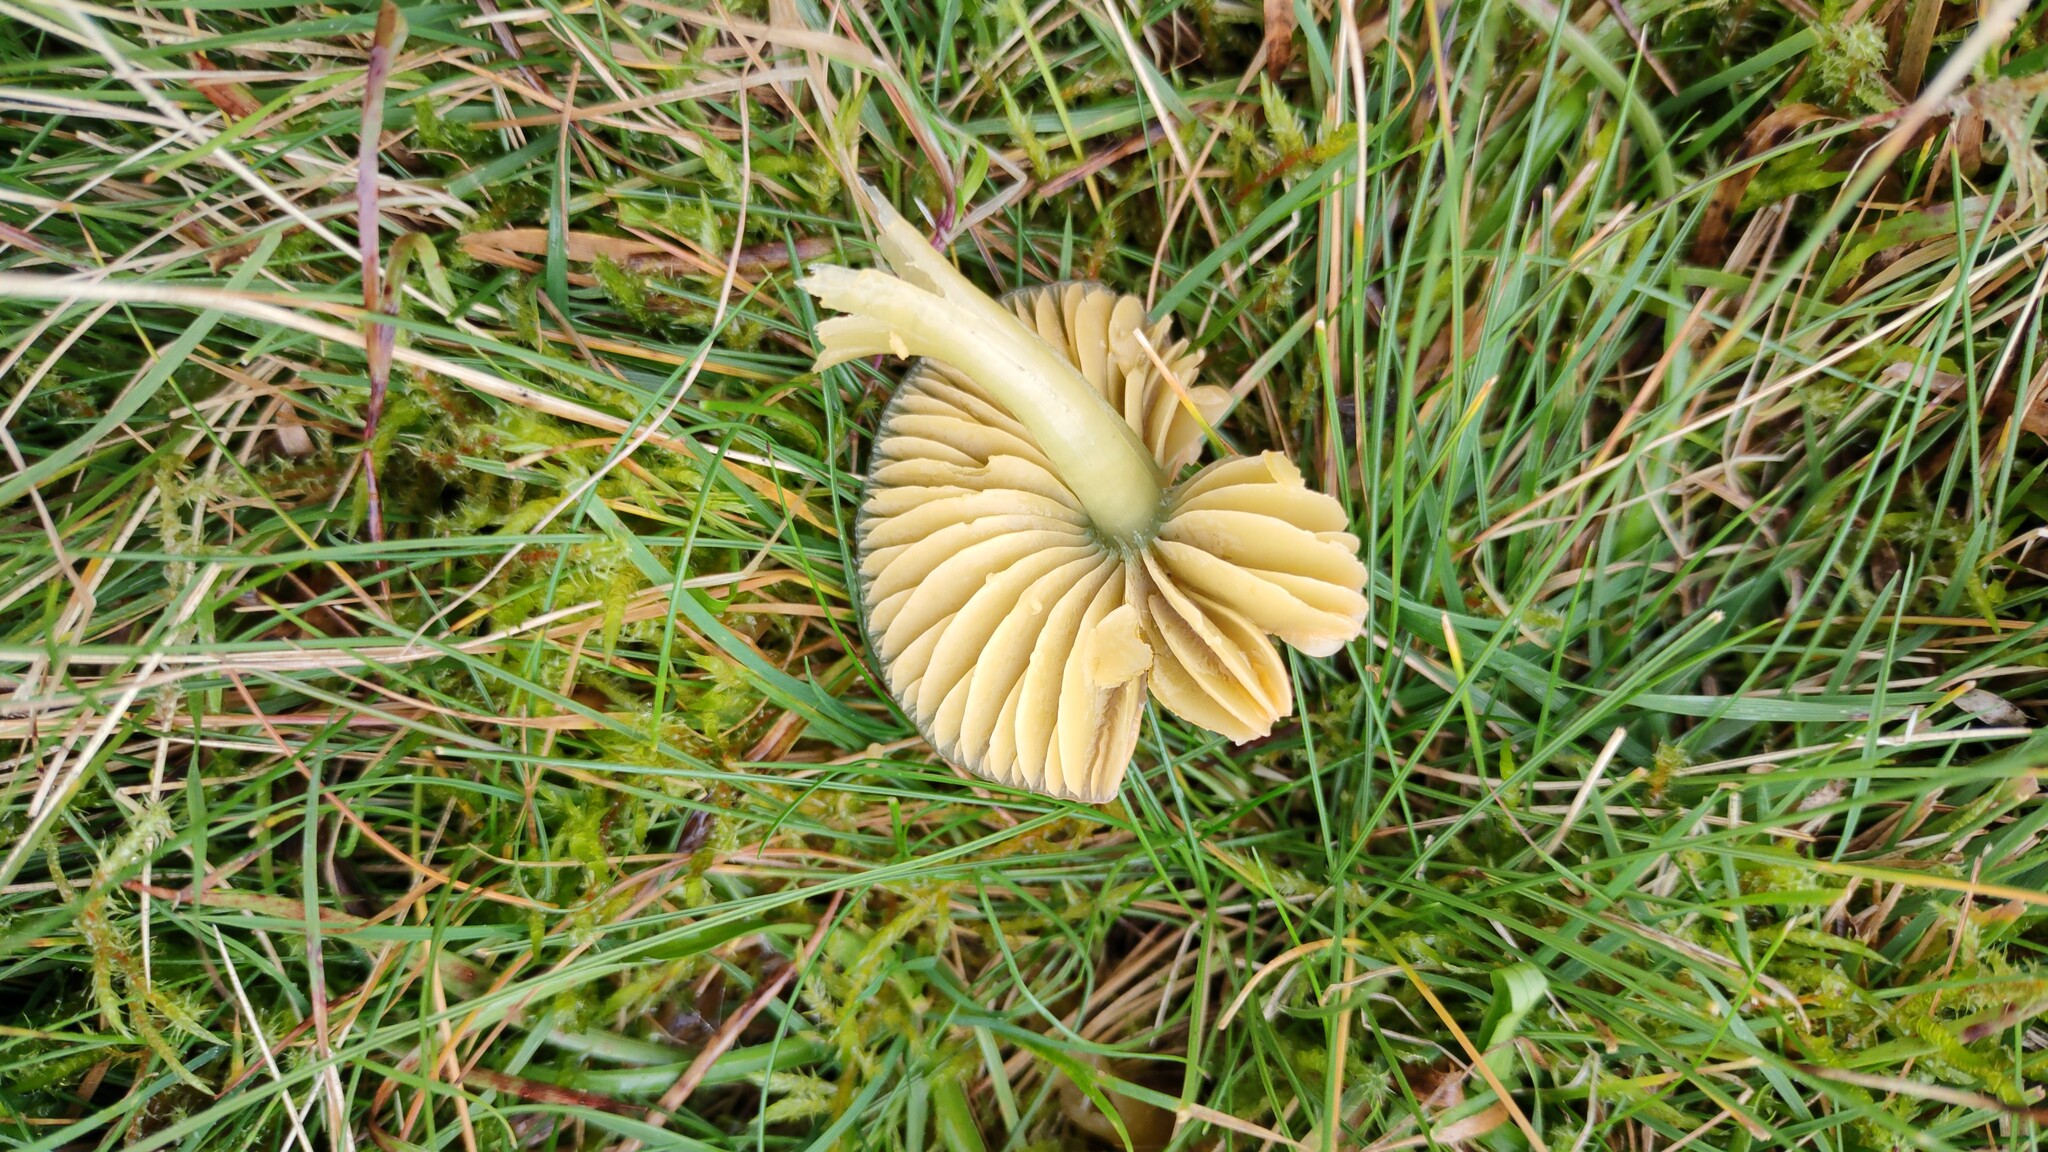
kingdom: Fungi
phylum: Basidiomycota
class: Agaricomycetes
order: Agaricales
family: Hygrophoraceae
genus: Gliophorus
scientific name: Gliophorus psittacinus
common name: Parrot wax-cap
